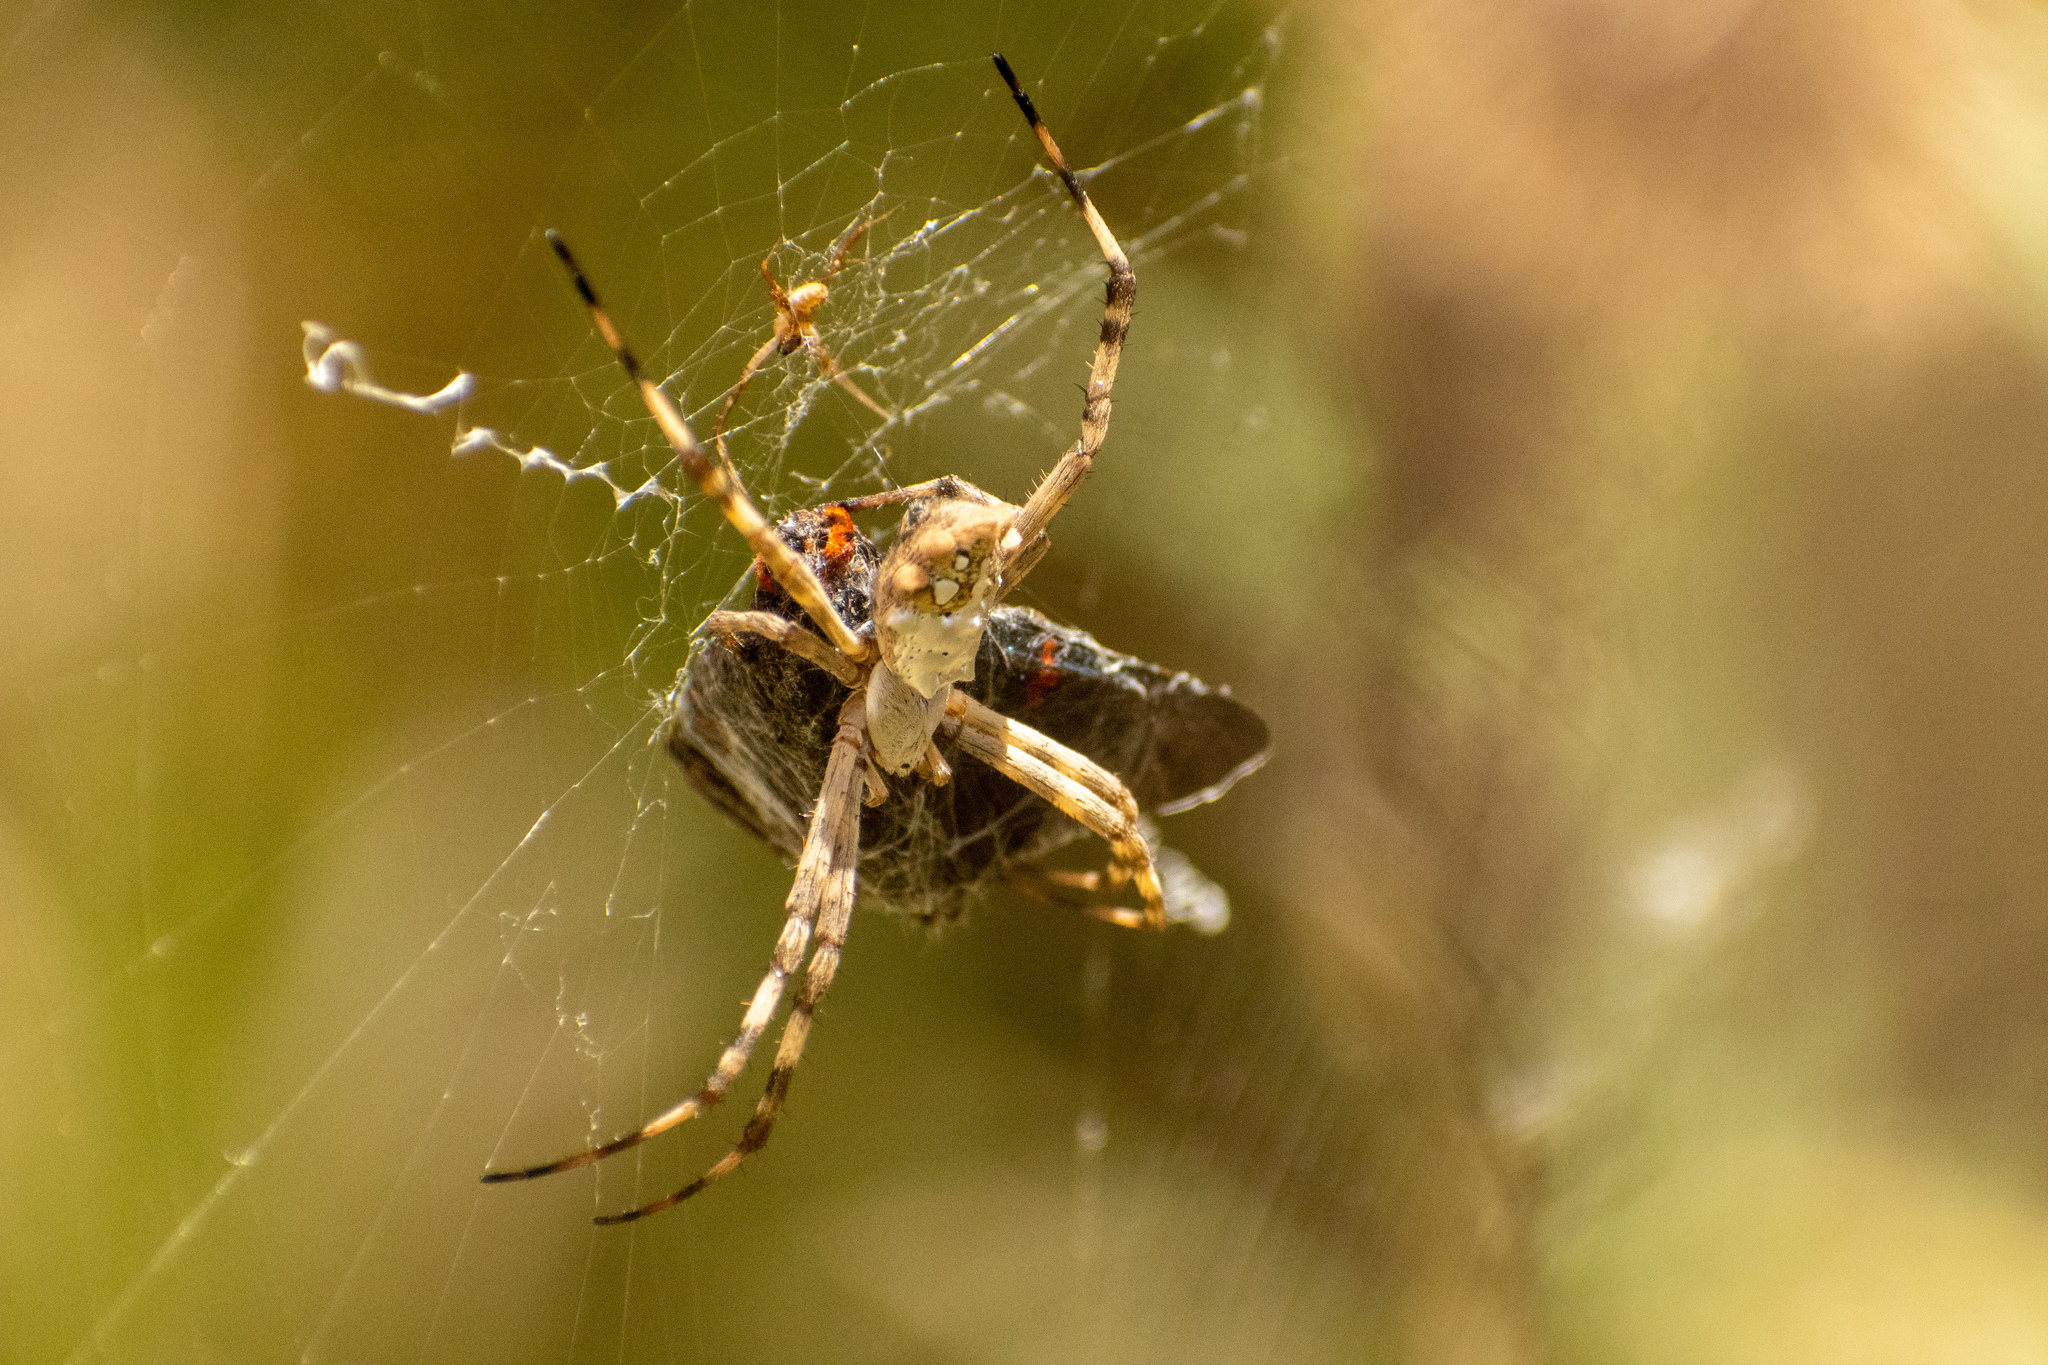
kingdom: Animalia
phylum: Arthropoda
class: Arachnida
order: Araneae
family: Araneidae
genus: Argiope
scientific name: Argiope argentata
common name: Orb weavers
